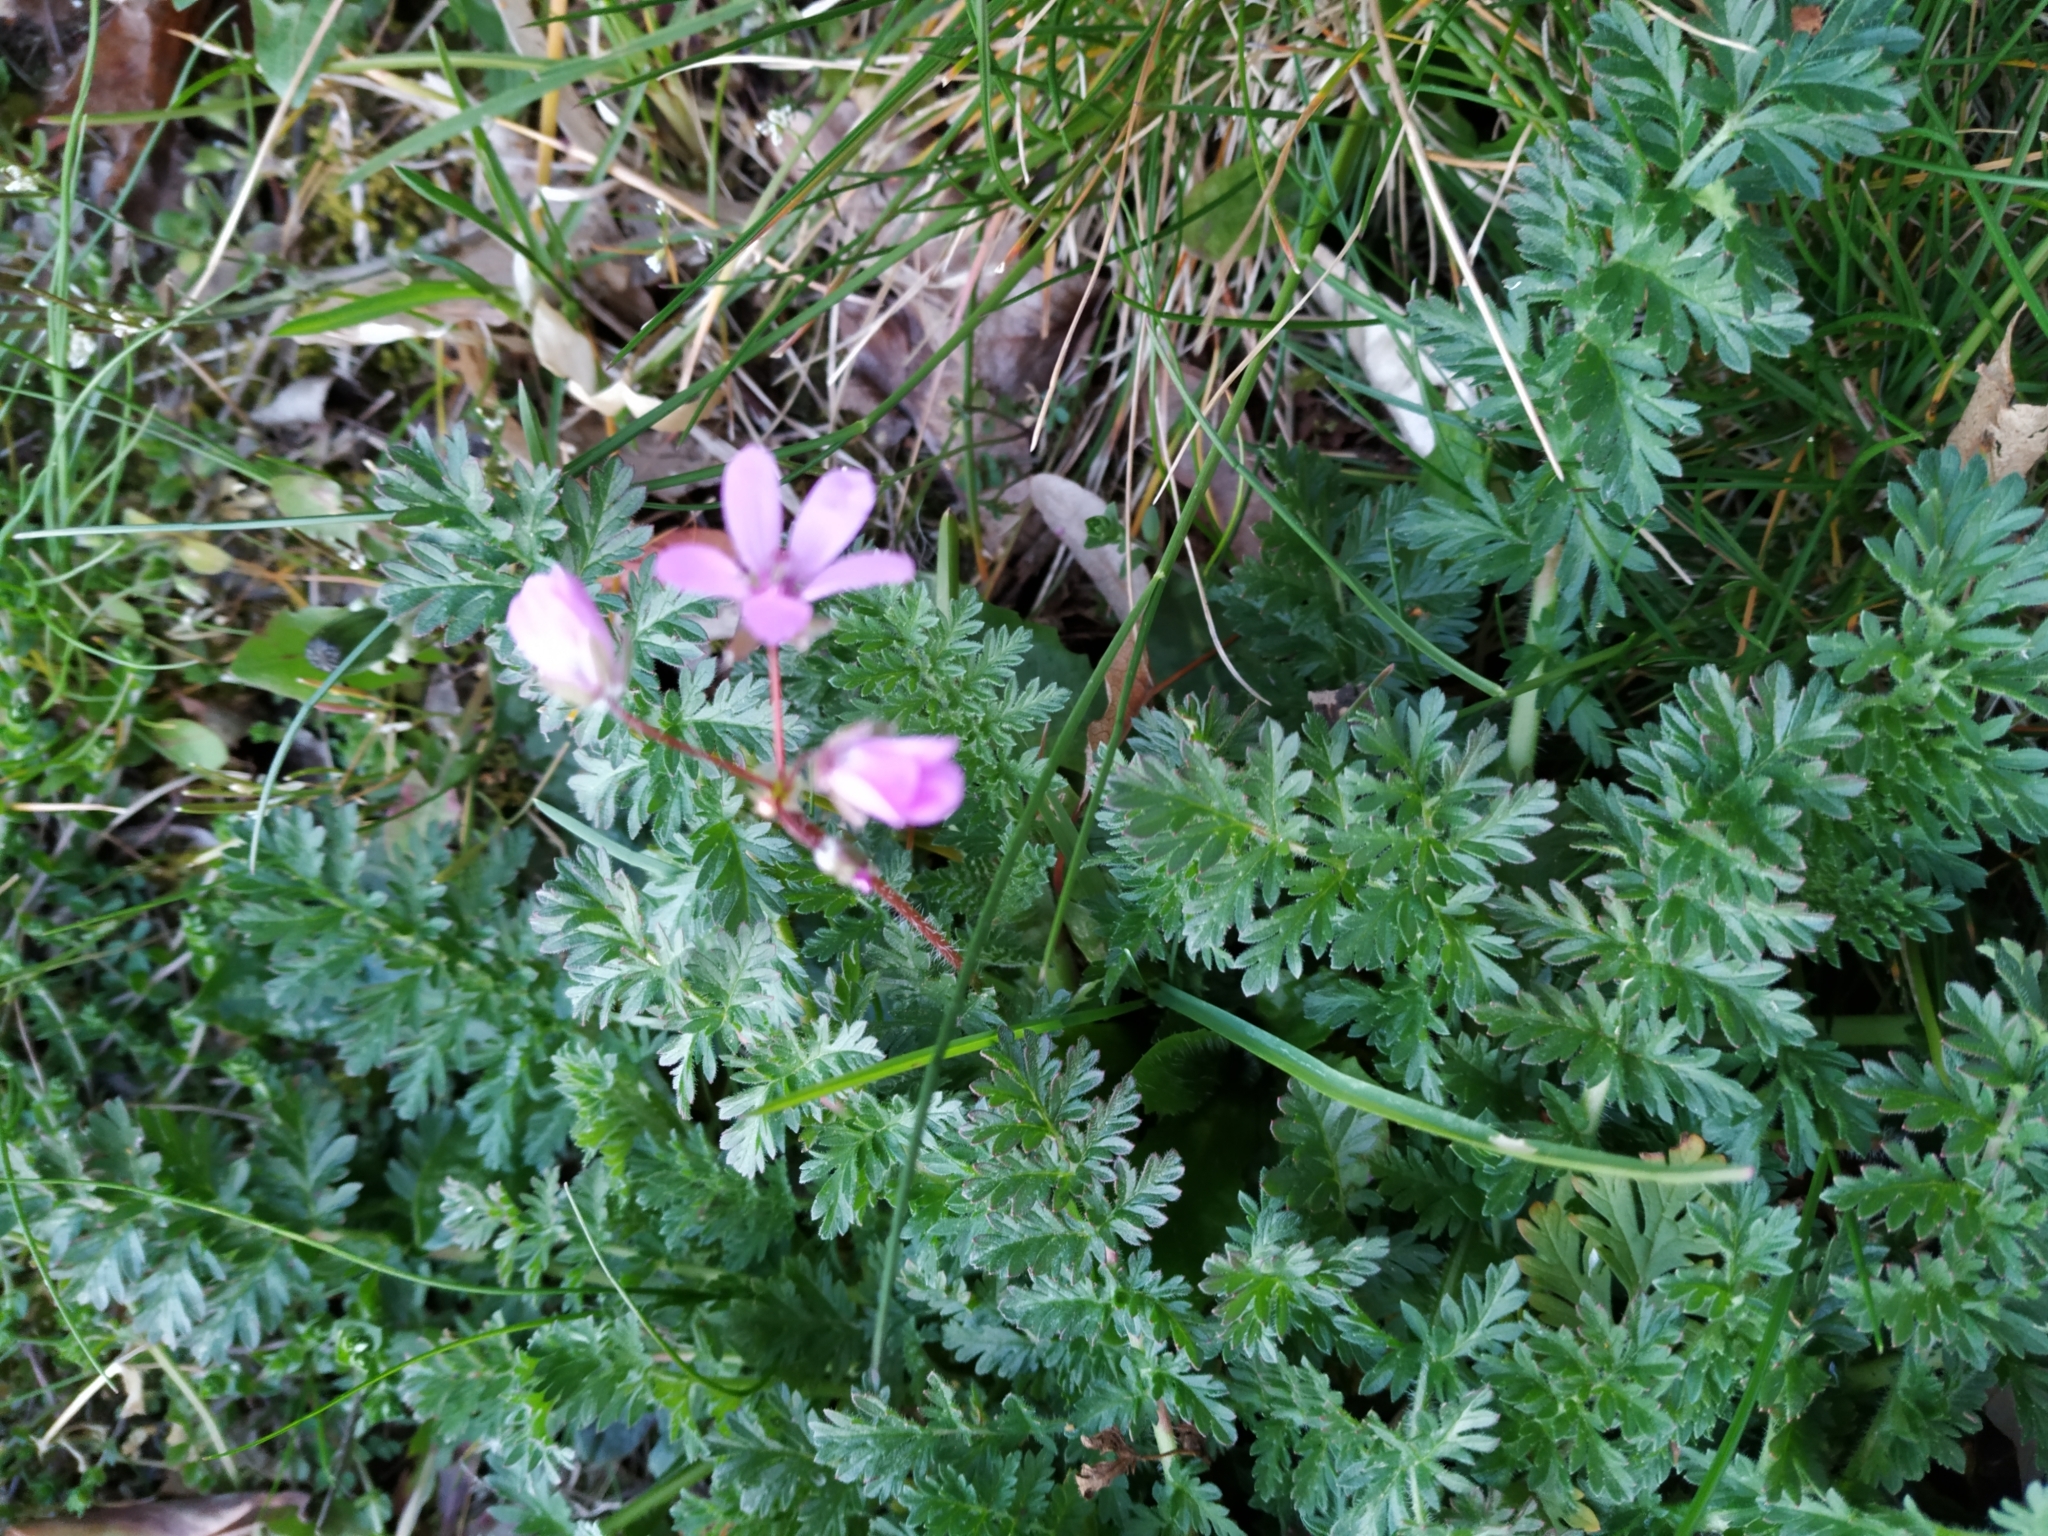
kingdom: Plantae
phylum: Tracheophyta
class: Magnoliopsida
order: Geraniales
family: Geraniaceae
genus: Erodium
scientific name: Erodium cicutarium
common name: Common stork's-bill
